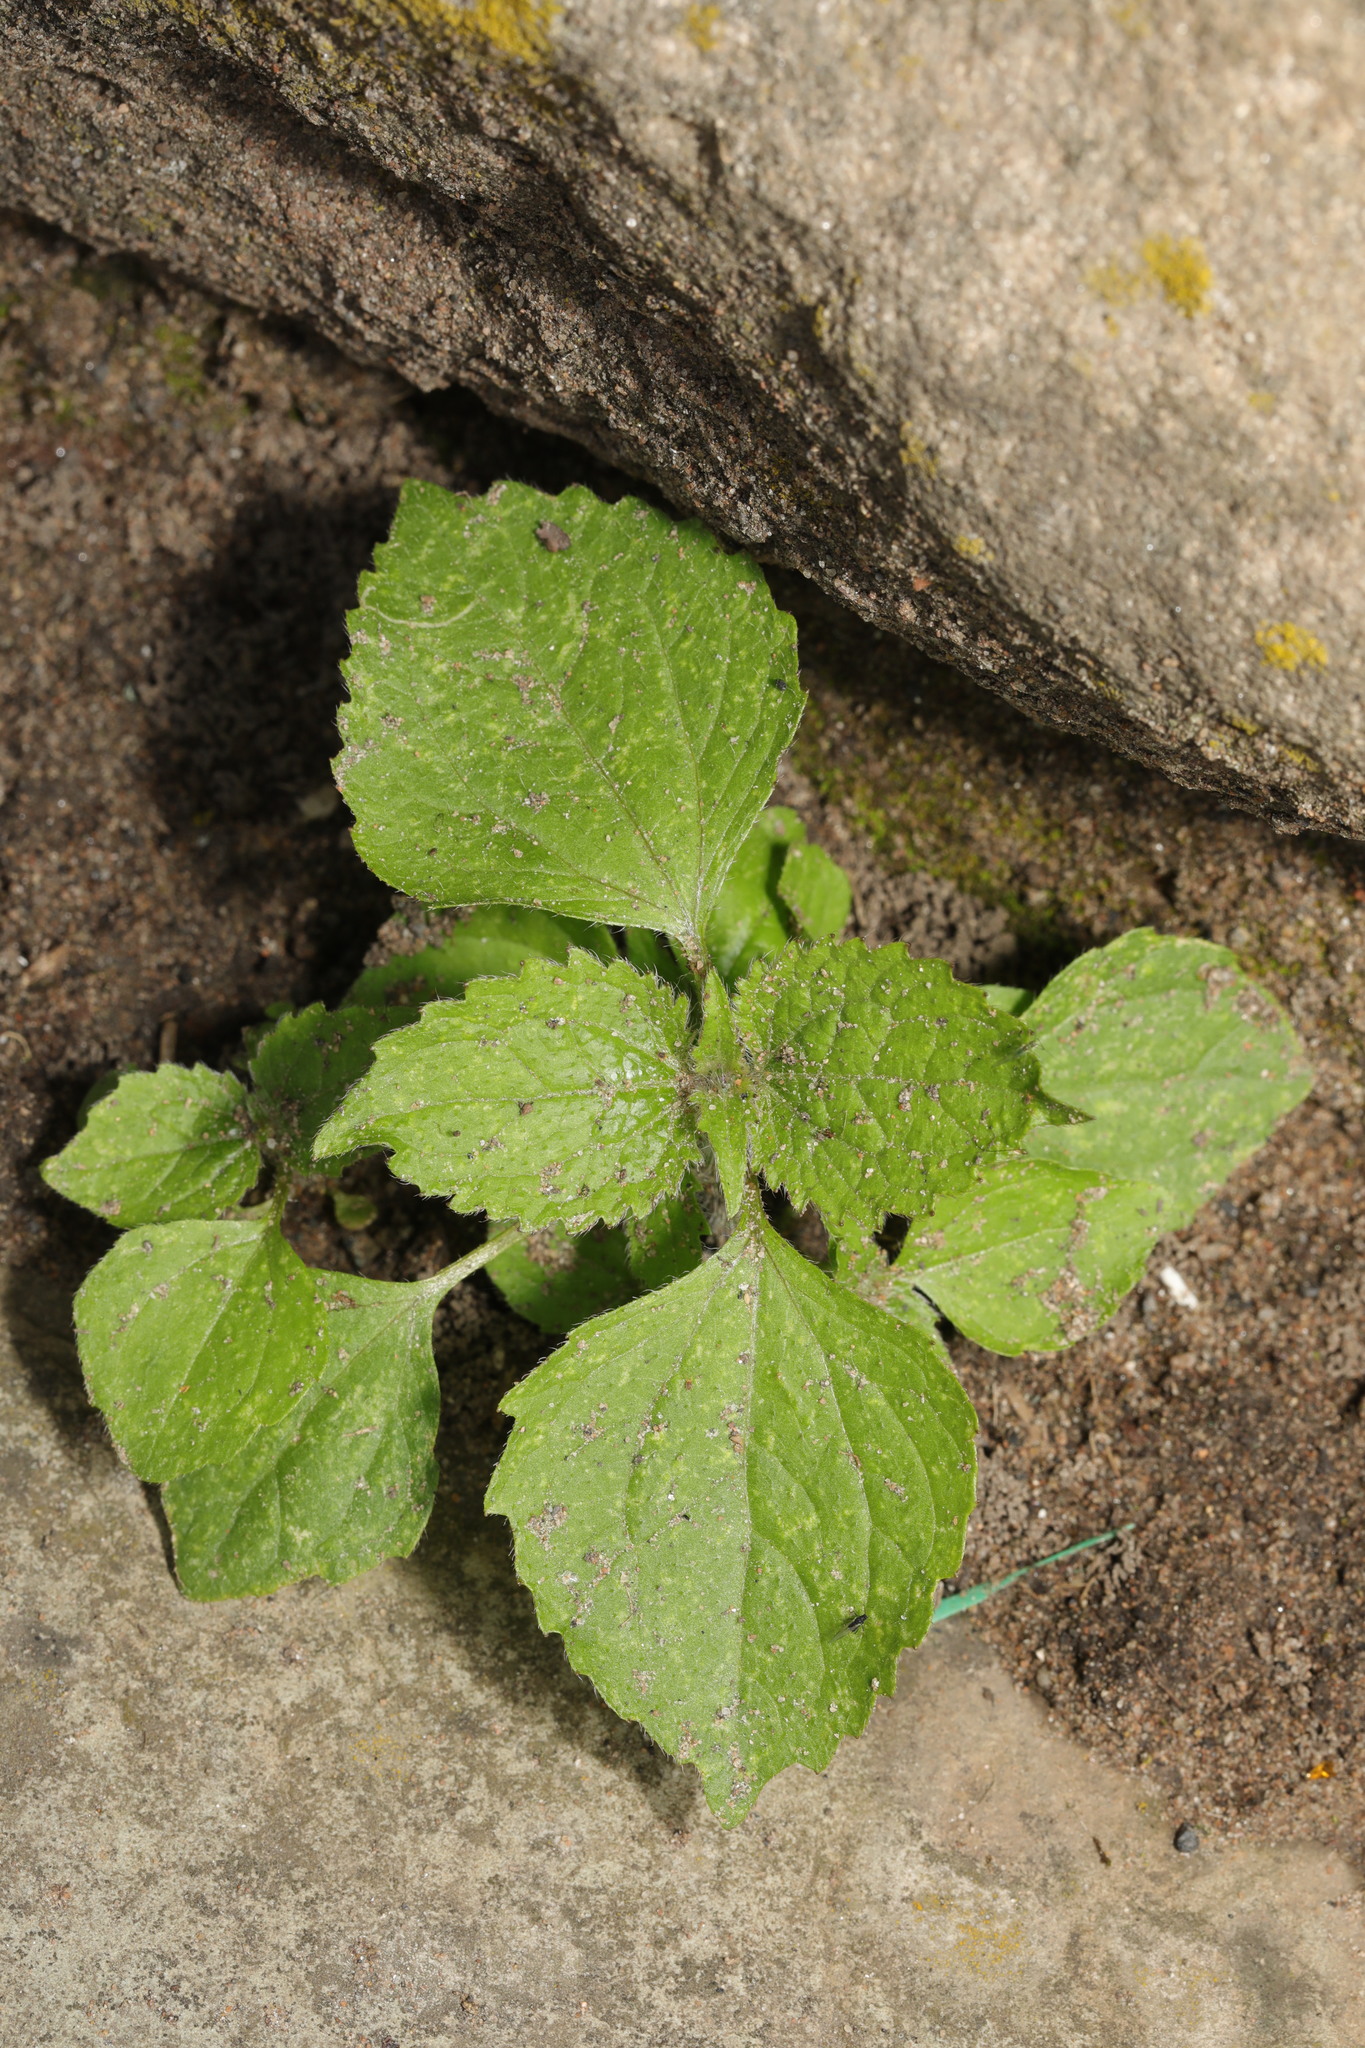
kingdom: Plantae
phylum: Tracheophyta
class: Magnoliopsida
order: Asterales
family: Asteraceae
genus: Galinsoga
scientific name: Galinsoga quadriradiata
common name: Shaggy soldier
